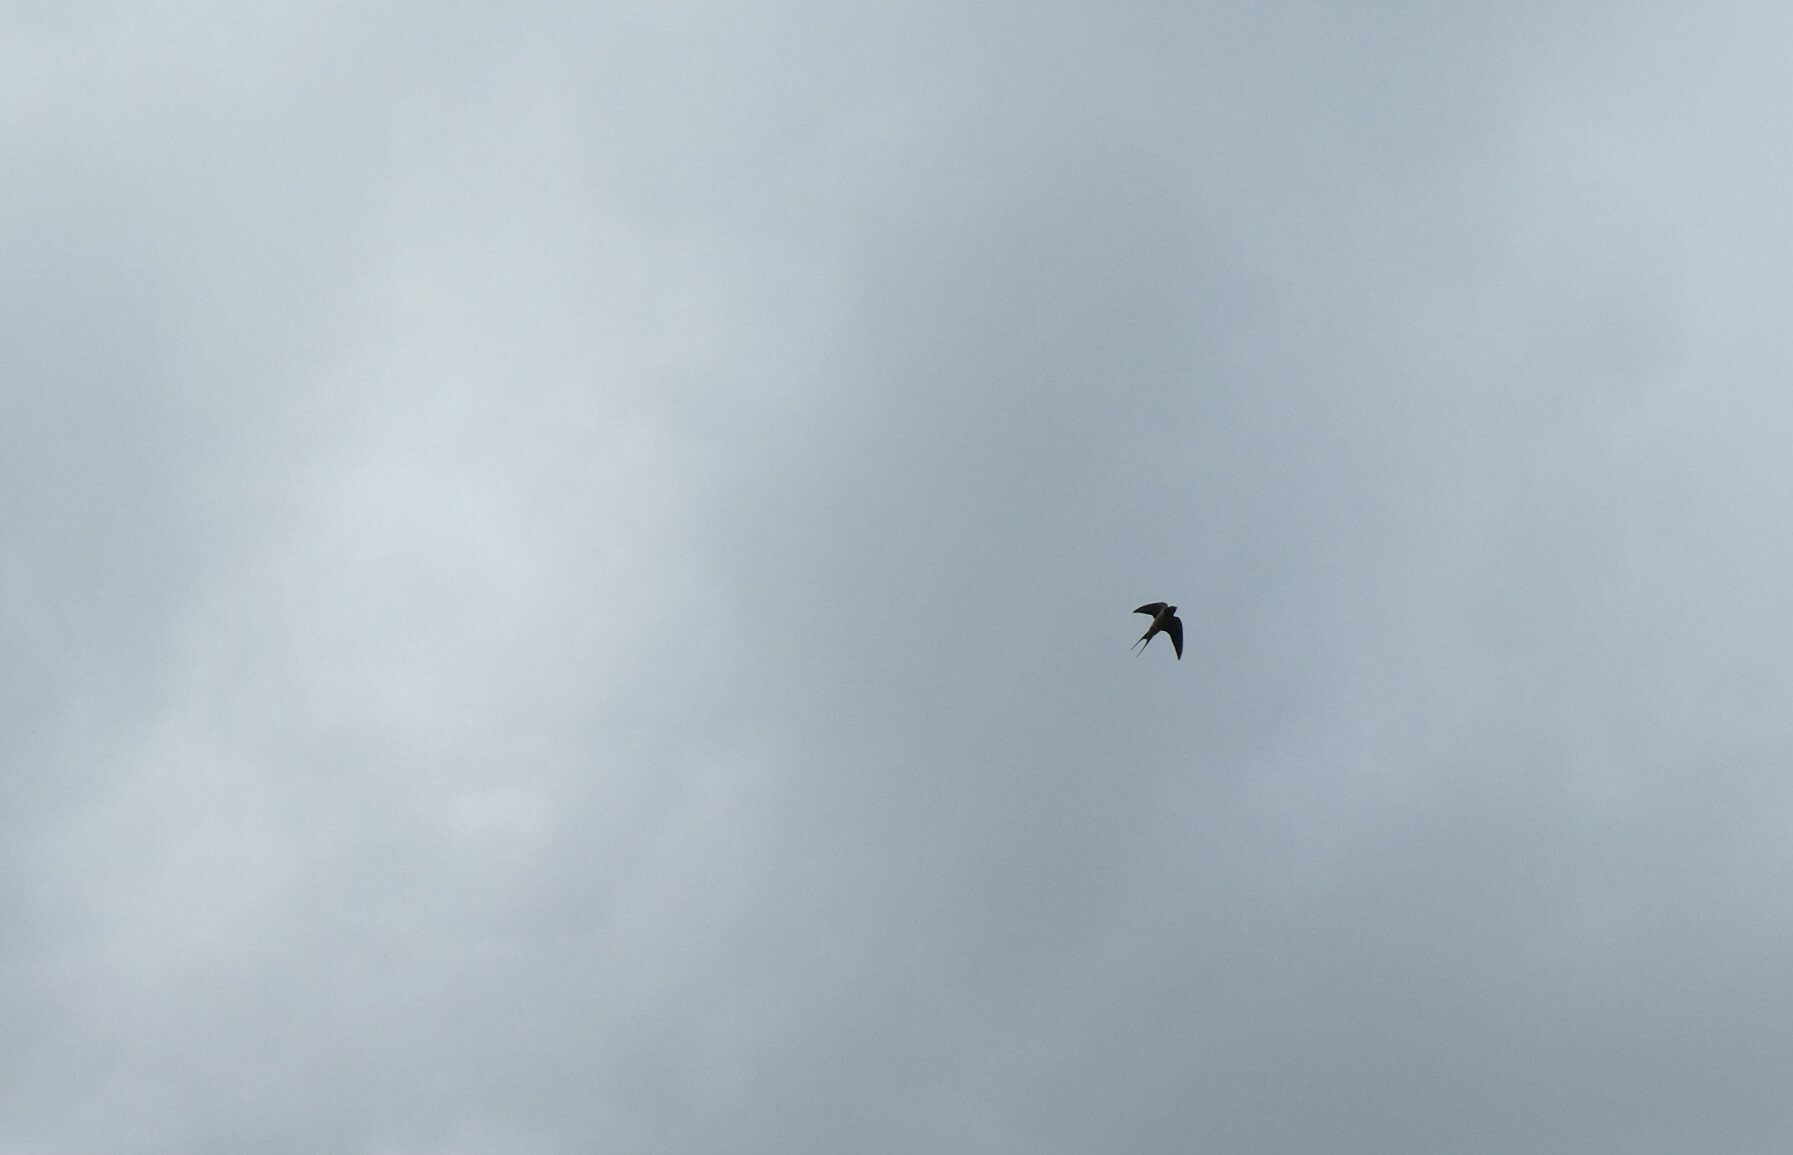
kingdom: Animalia
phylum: Chordata
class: Aves
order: Passeriformes
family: Hirundinidae
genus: Hirundo
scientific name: Hirundo rustica
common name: Barn swallow
